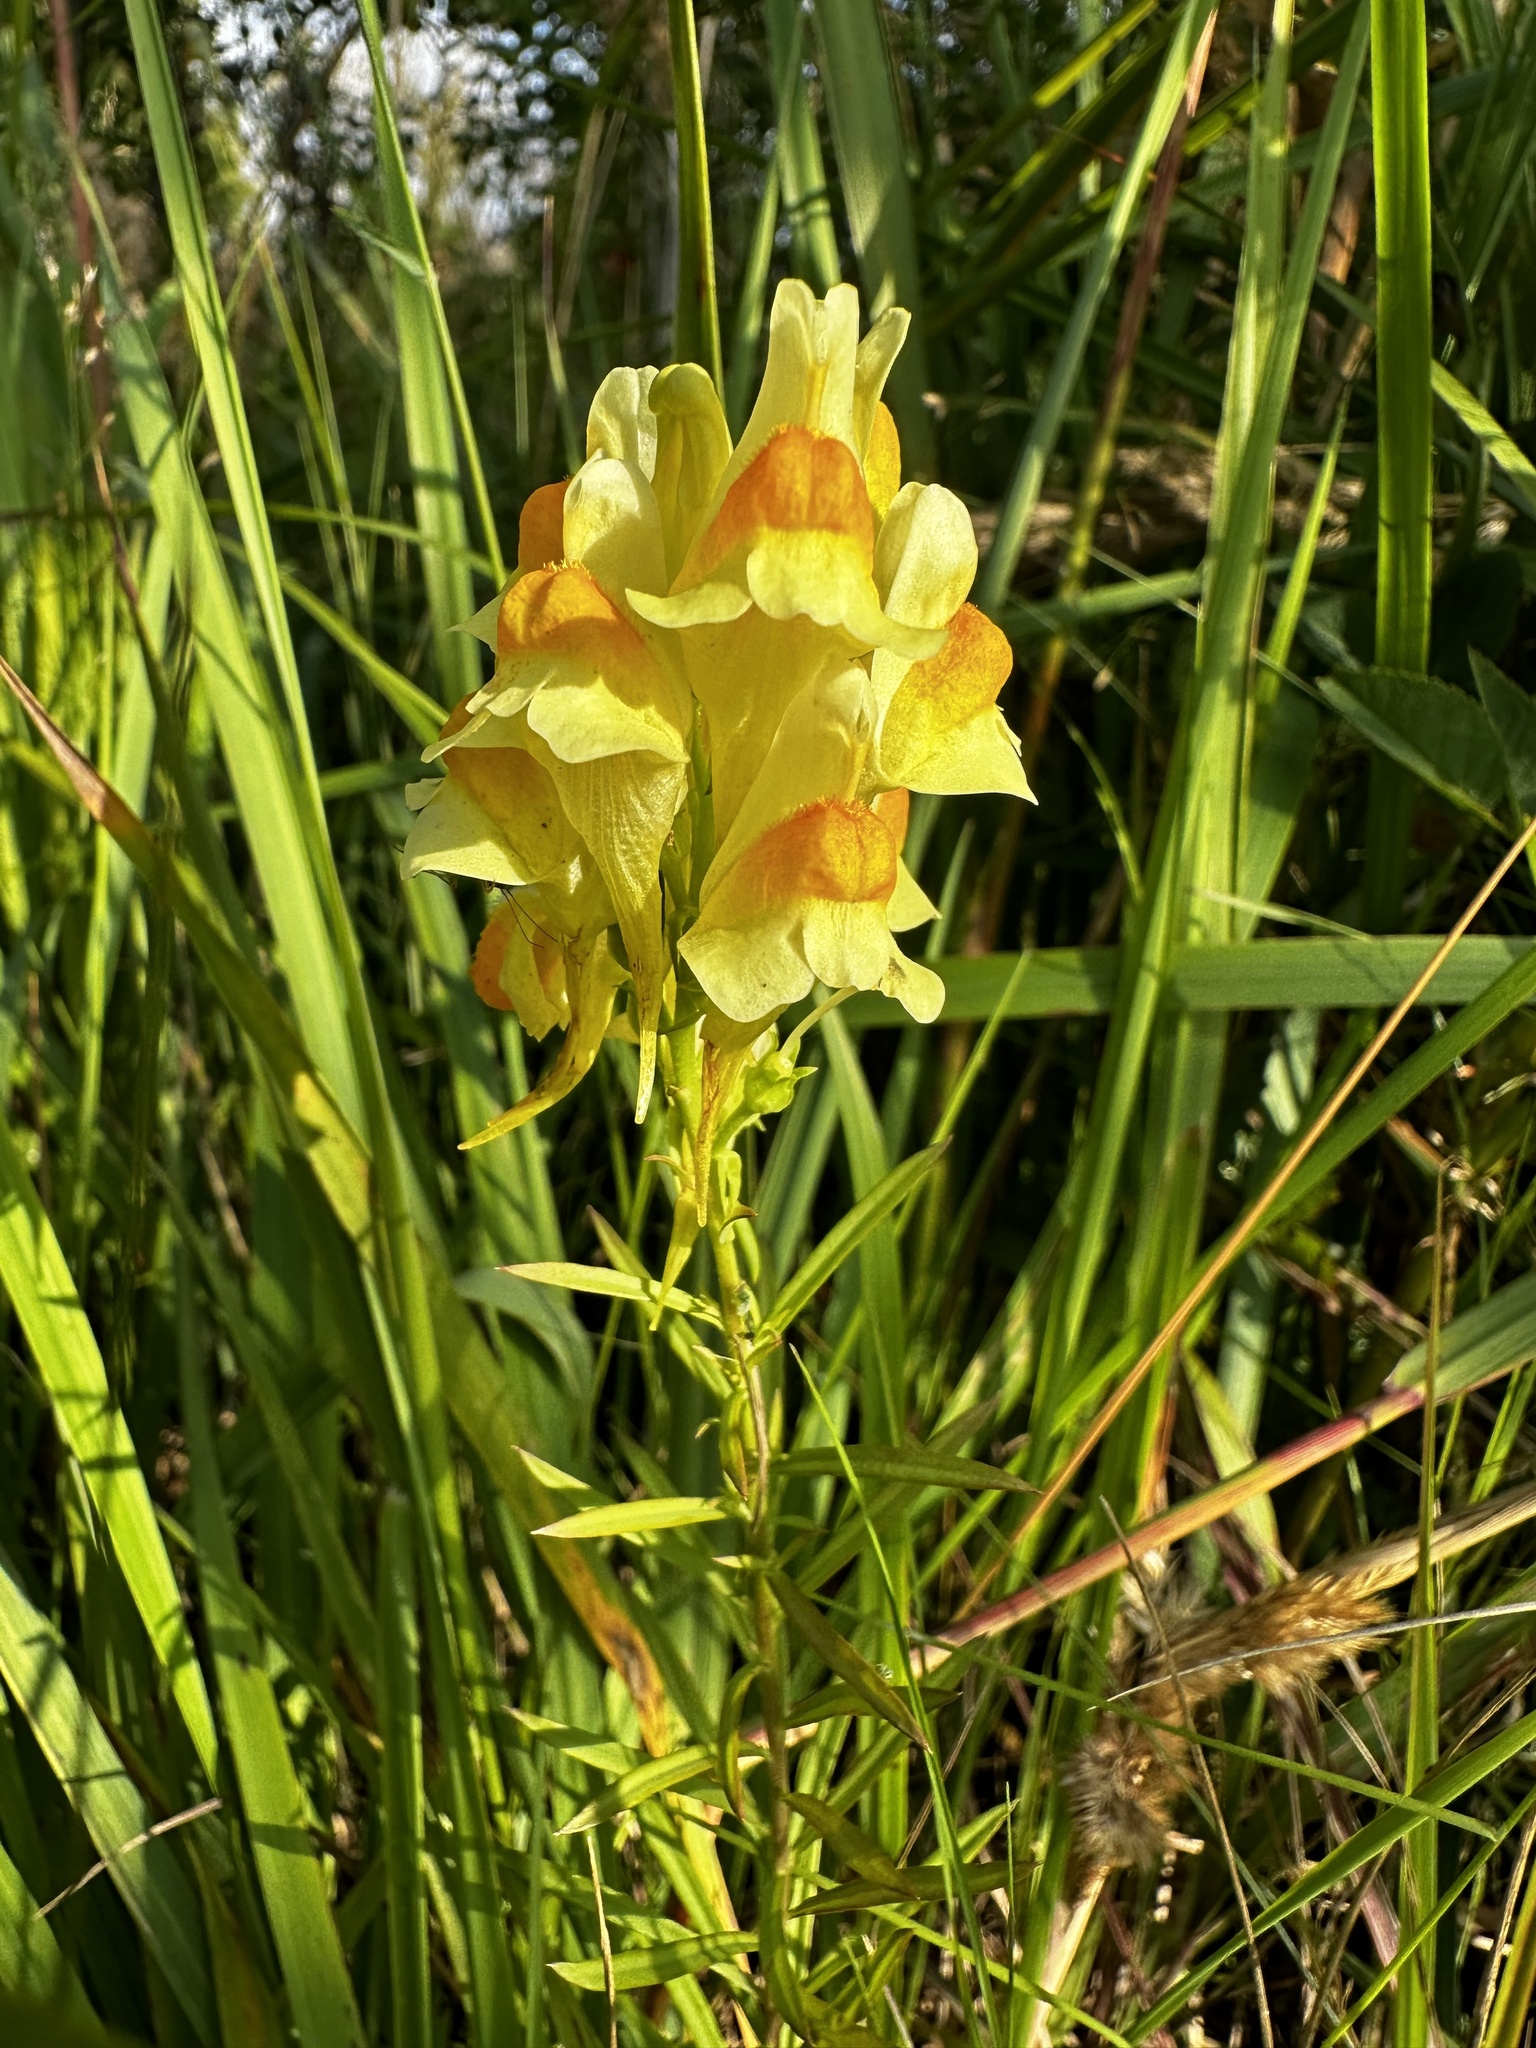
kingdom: Plantae
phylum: Tracheophyta
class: Magnoliopsida
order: Lamiales
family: Plantaginaceae
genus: Linaria
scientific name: Linaria vulgaris
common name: Butter and eggs
